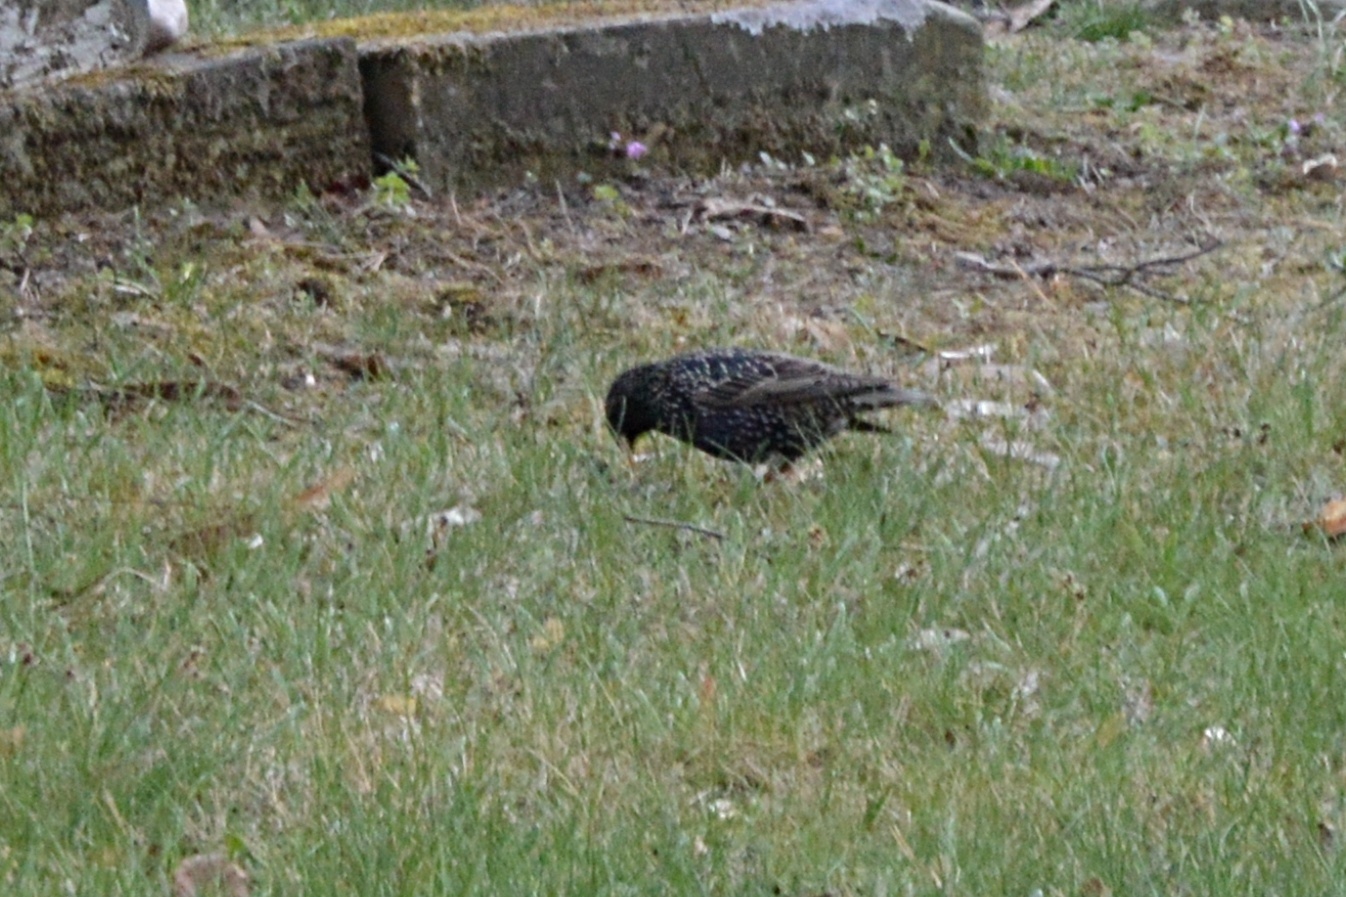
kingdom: Animalia
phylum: Chordata
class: Aves
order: Passeriformes
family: Sturnidae
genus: Sturnus
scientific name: Sturnus vulgaris
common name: Common starling
